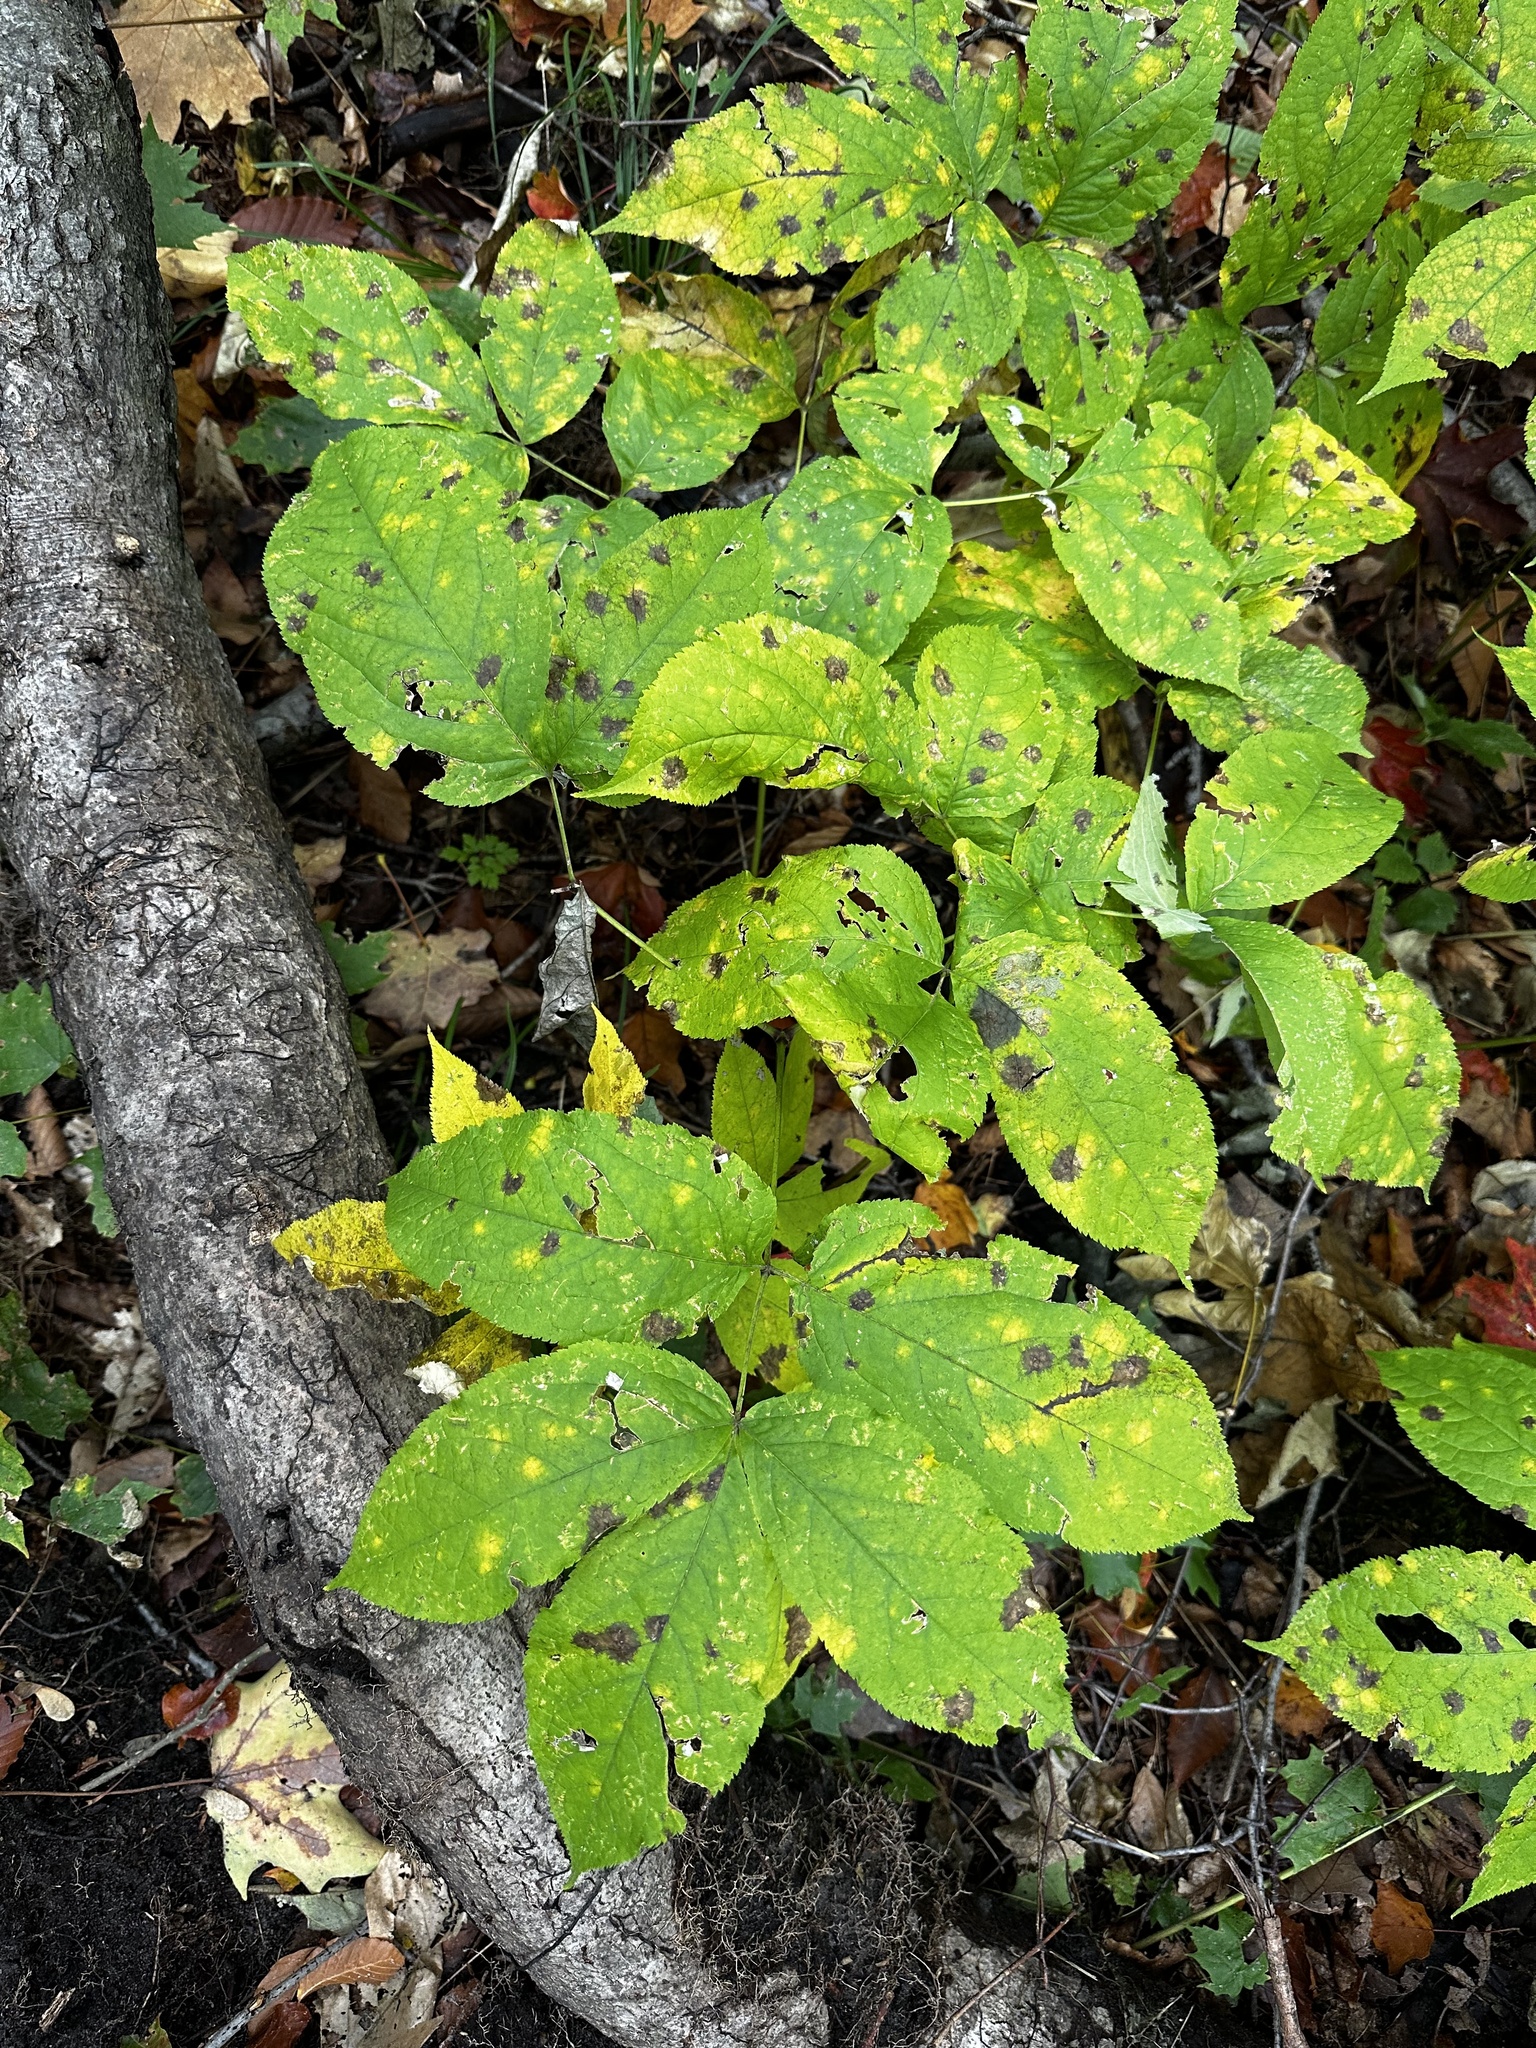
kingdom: Plantae
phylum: Tracheophyta
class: Magnoliopsida
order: Apiales
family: Araliaceae
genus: Aralia
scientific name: Aralia nudicaulis
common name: Wild sarsaparilla
